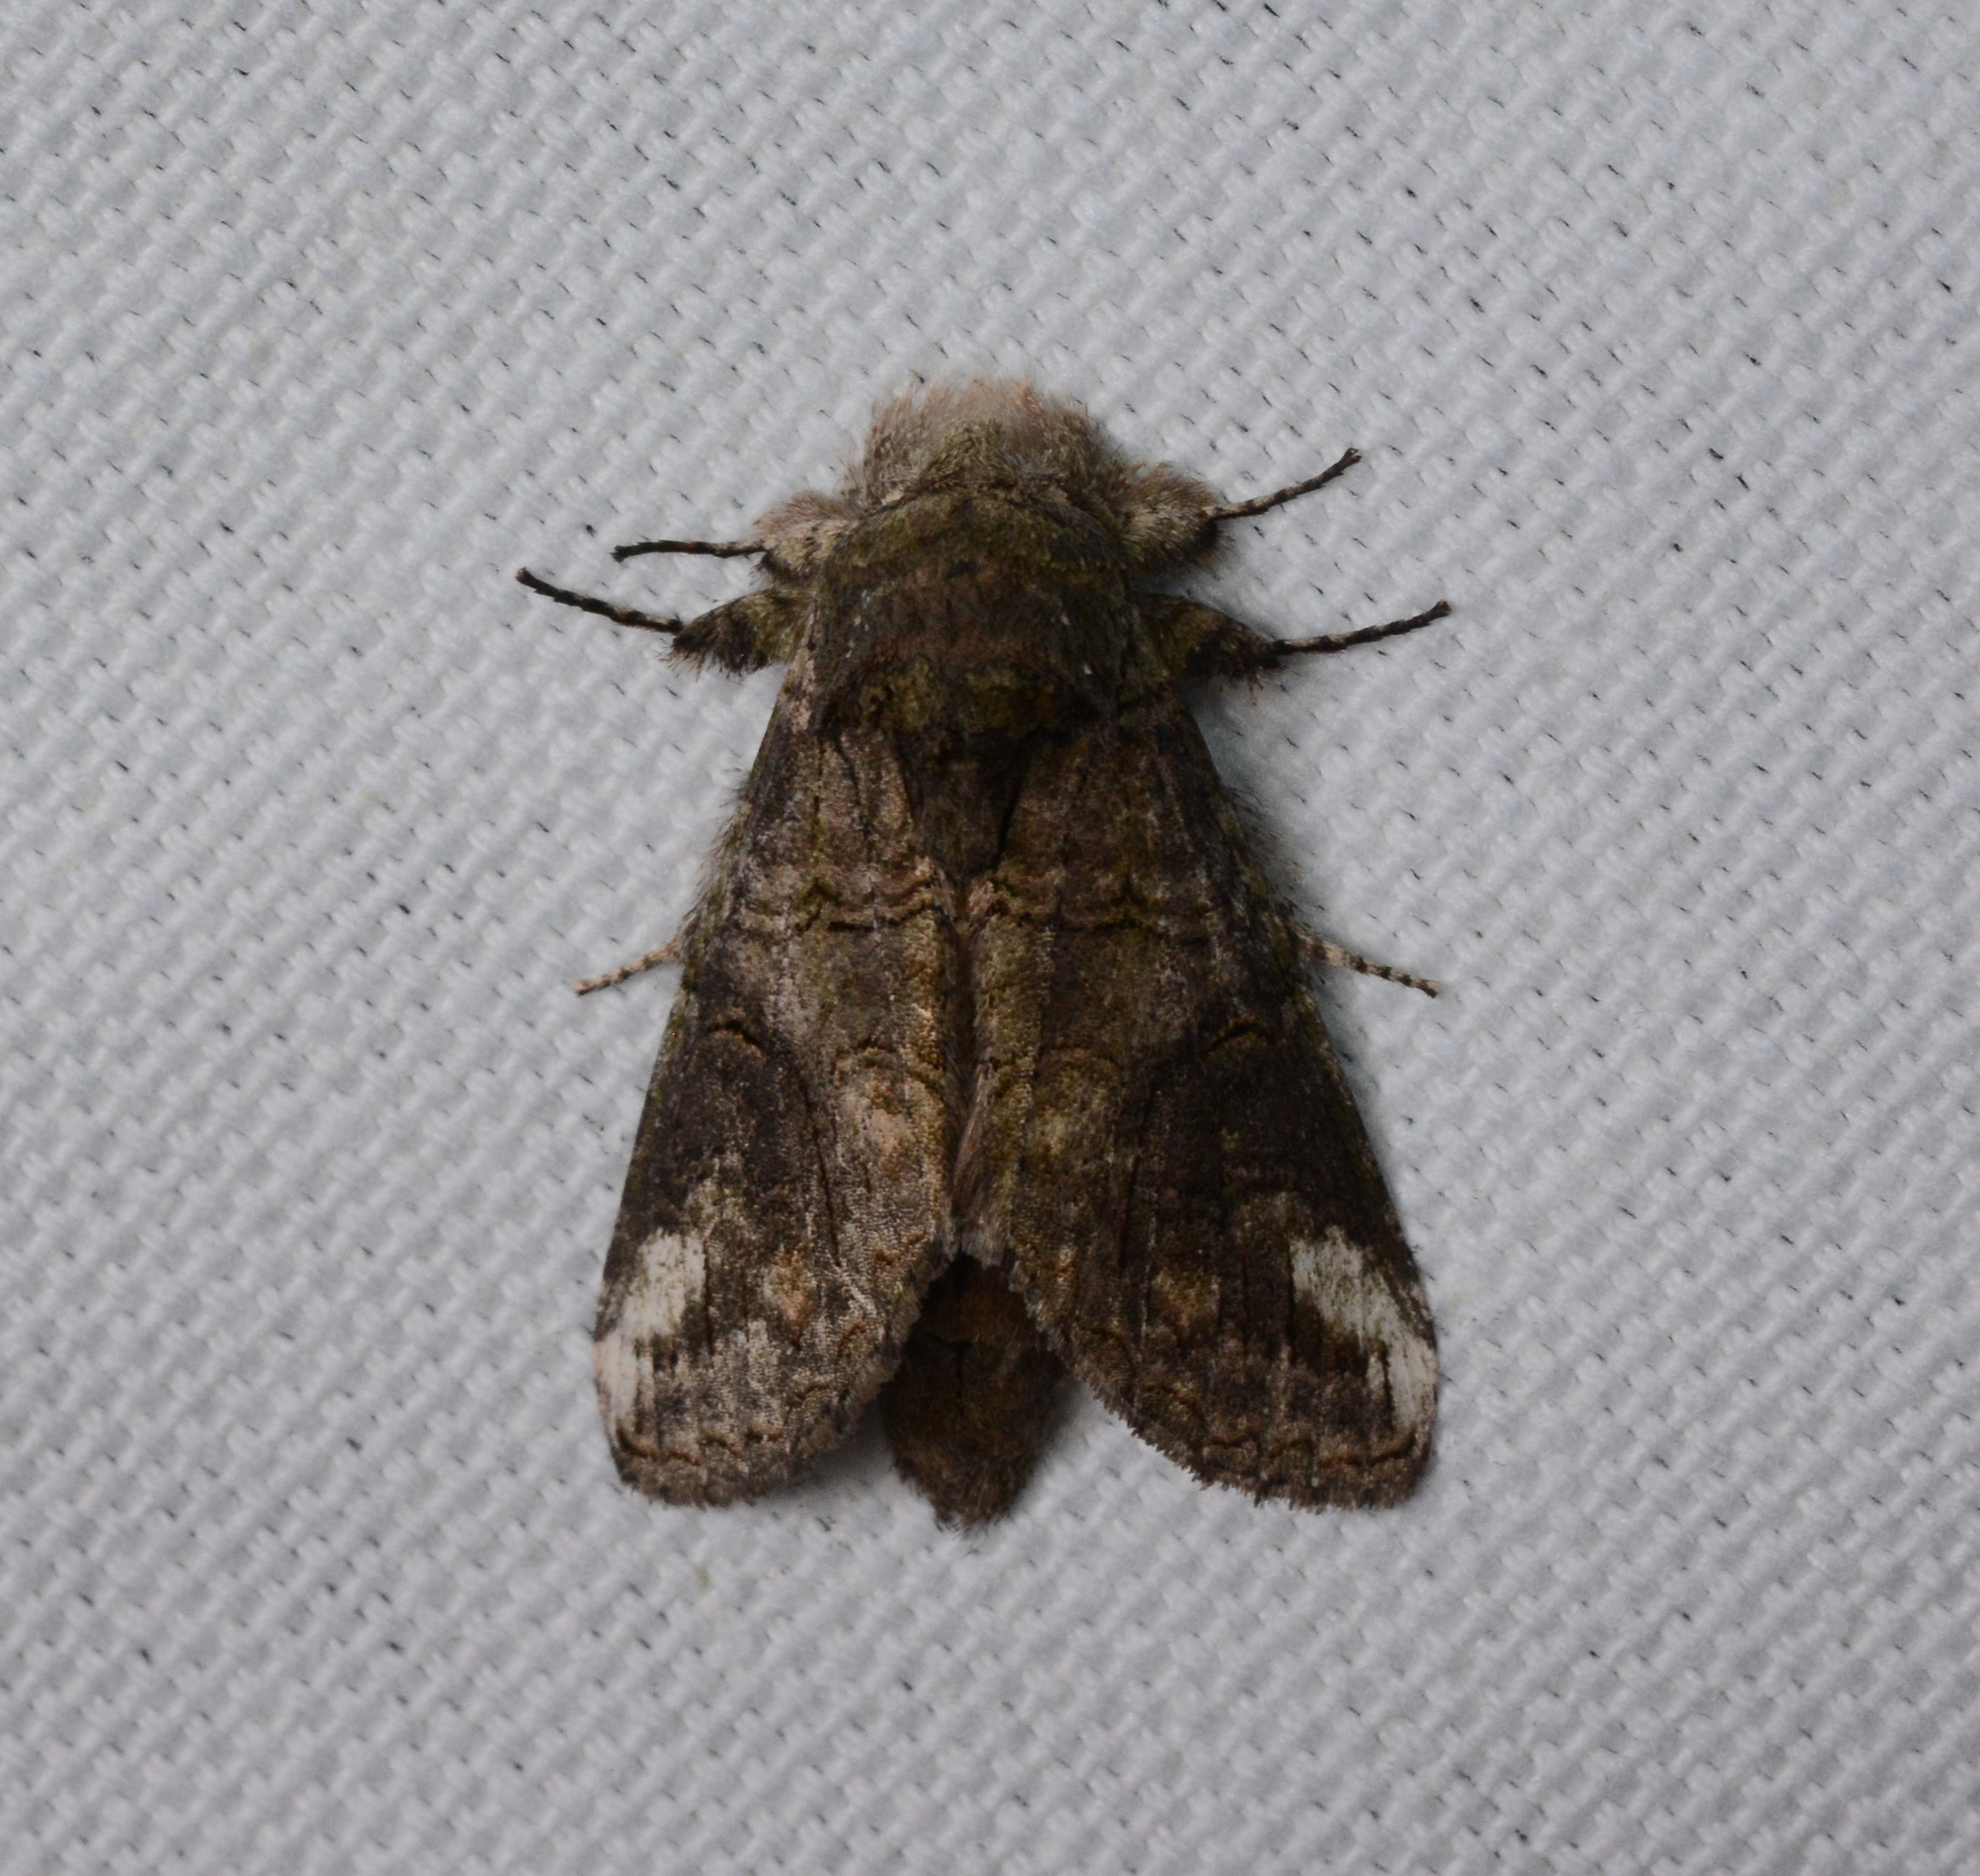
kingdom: Animalia
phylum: Arthropoda
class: Insecta
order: Lepidoptera
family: Notodontidae
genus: Heterocampa
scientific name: Heterocampa obliqua
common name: Oblique heterocampa
